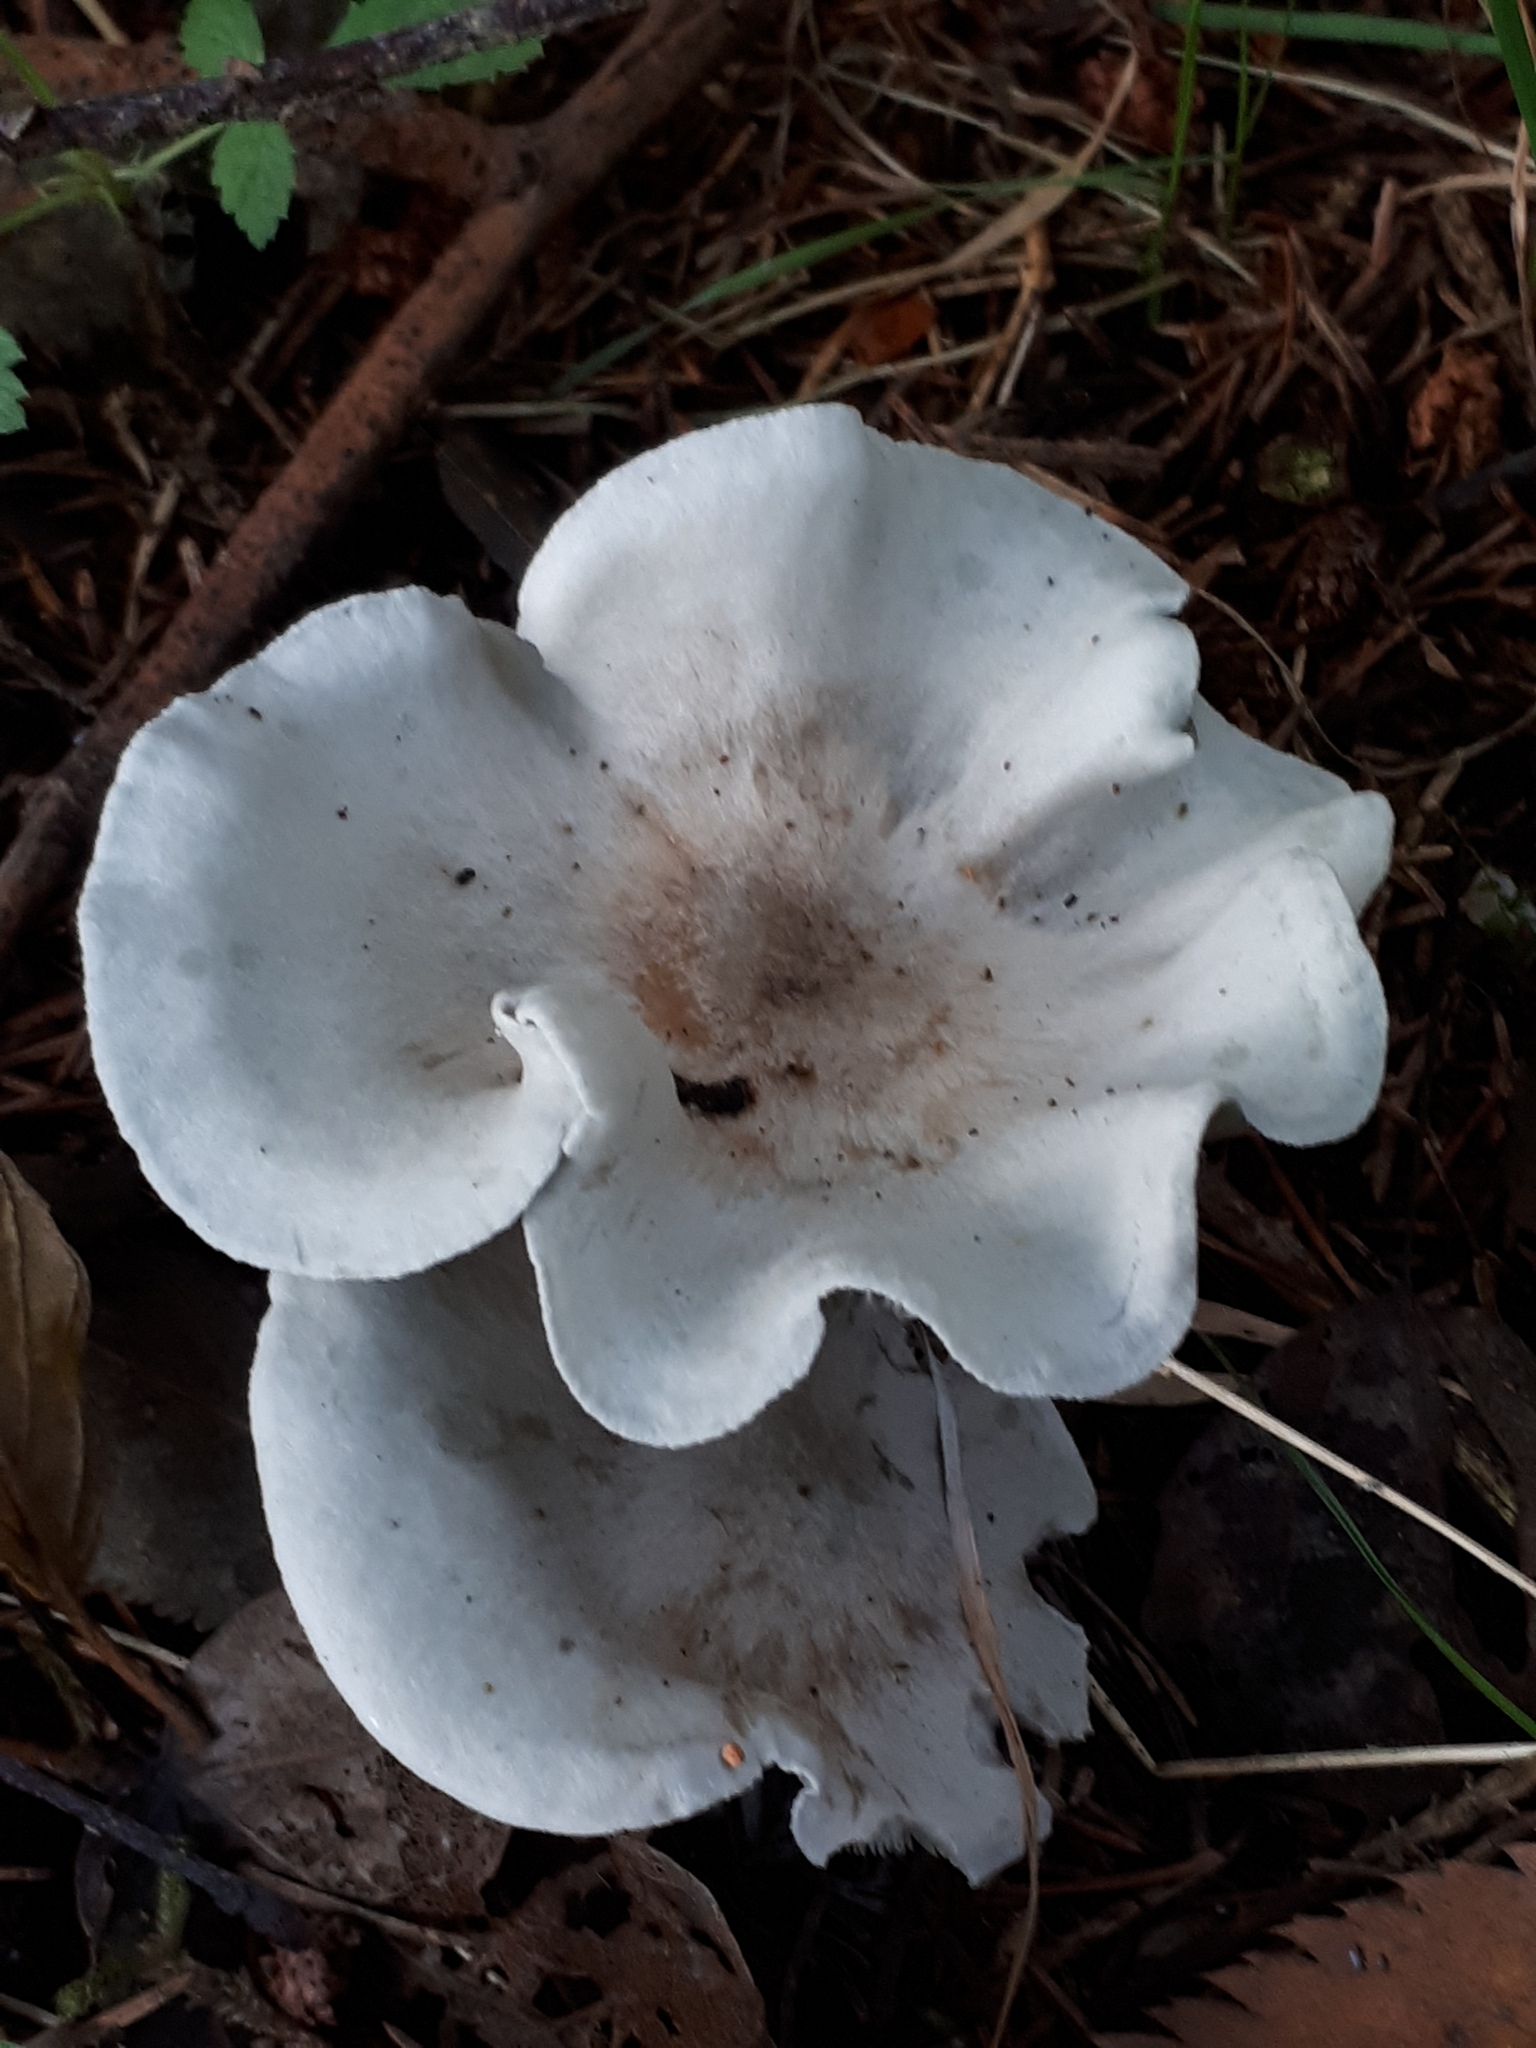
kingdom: Fungi
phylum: Basidiomycota
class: Agaricomycetes
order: Agaricales
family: Tricholomataceae
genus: Collybia
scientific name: Collybia
